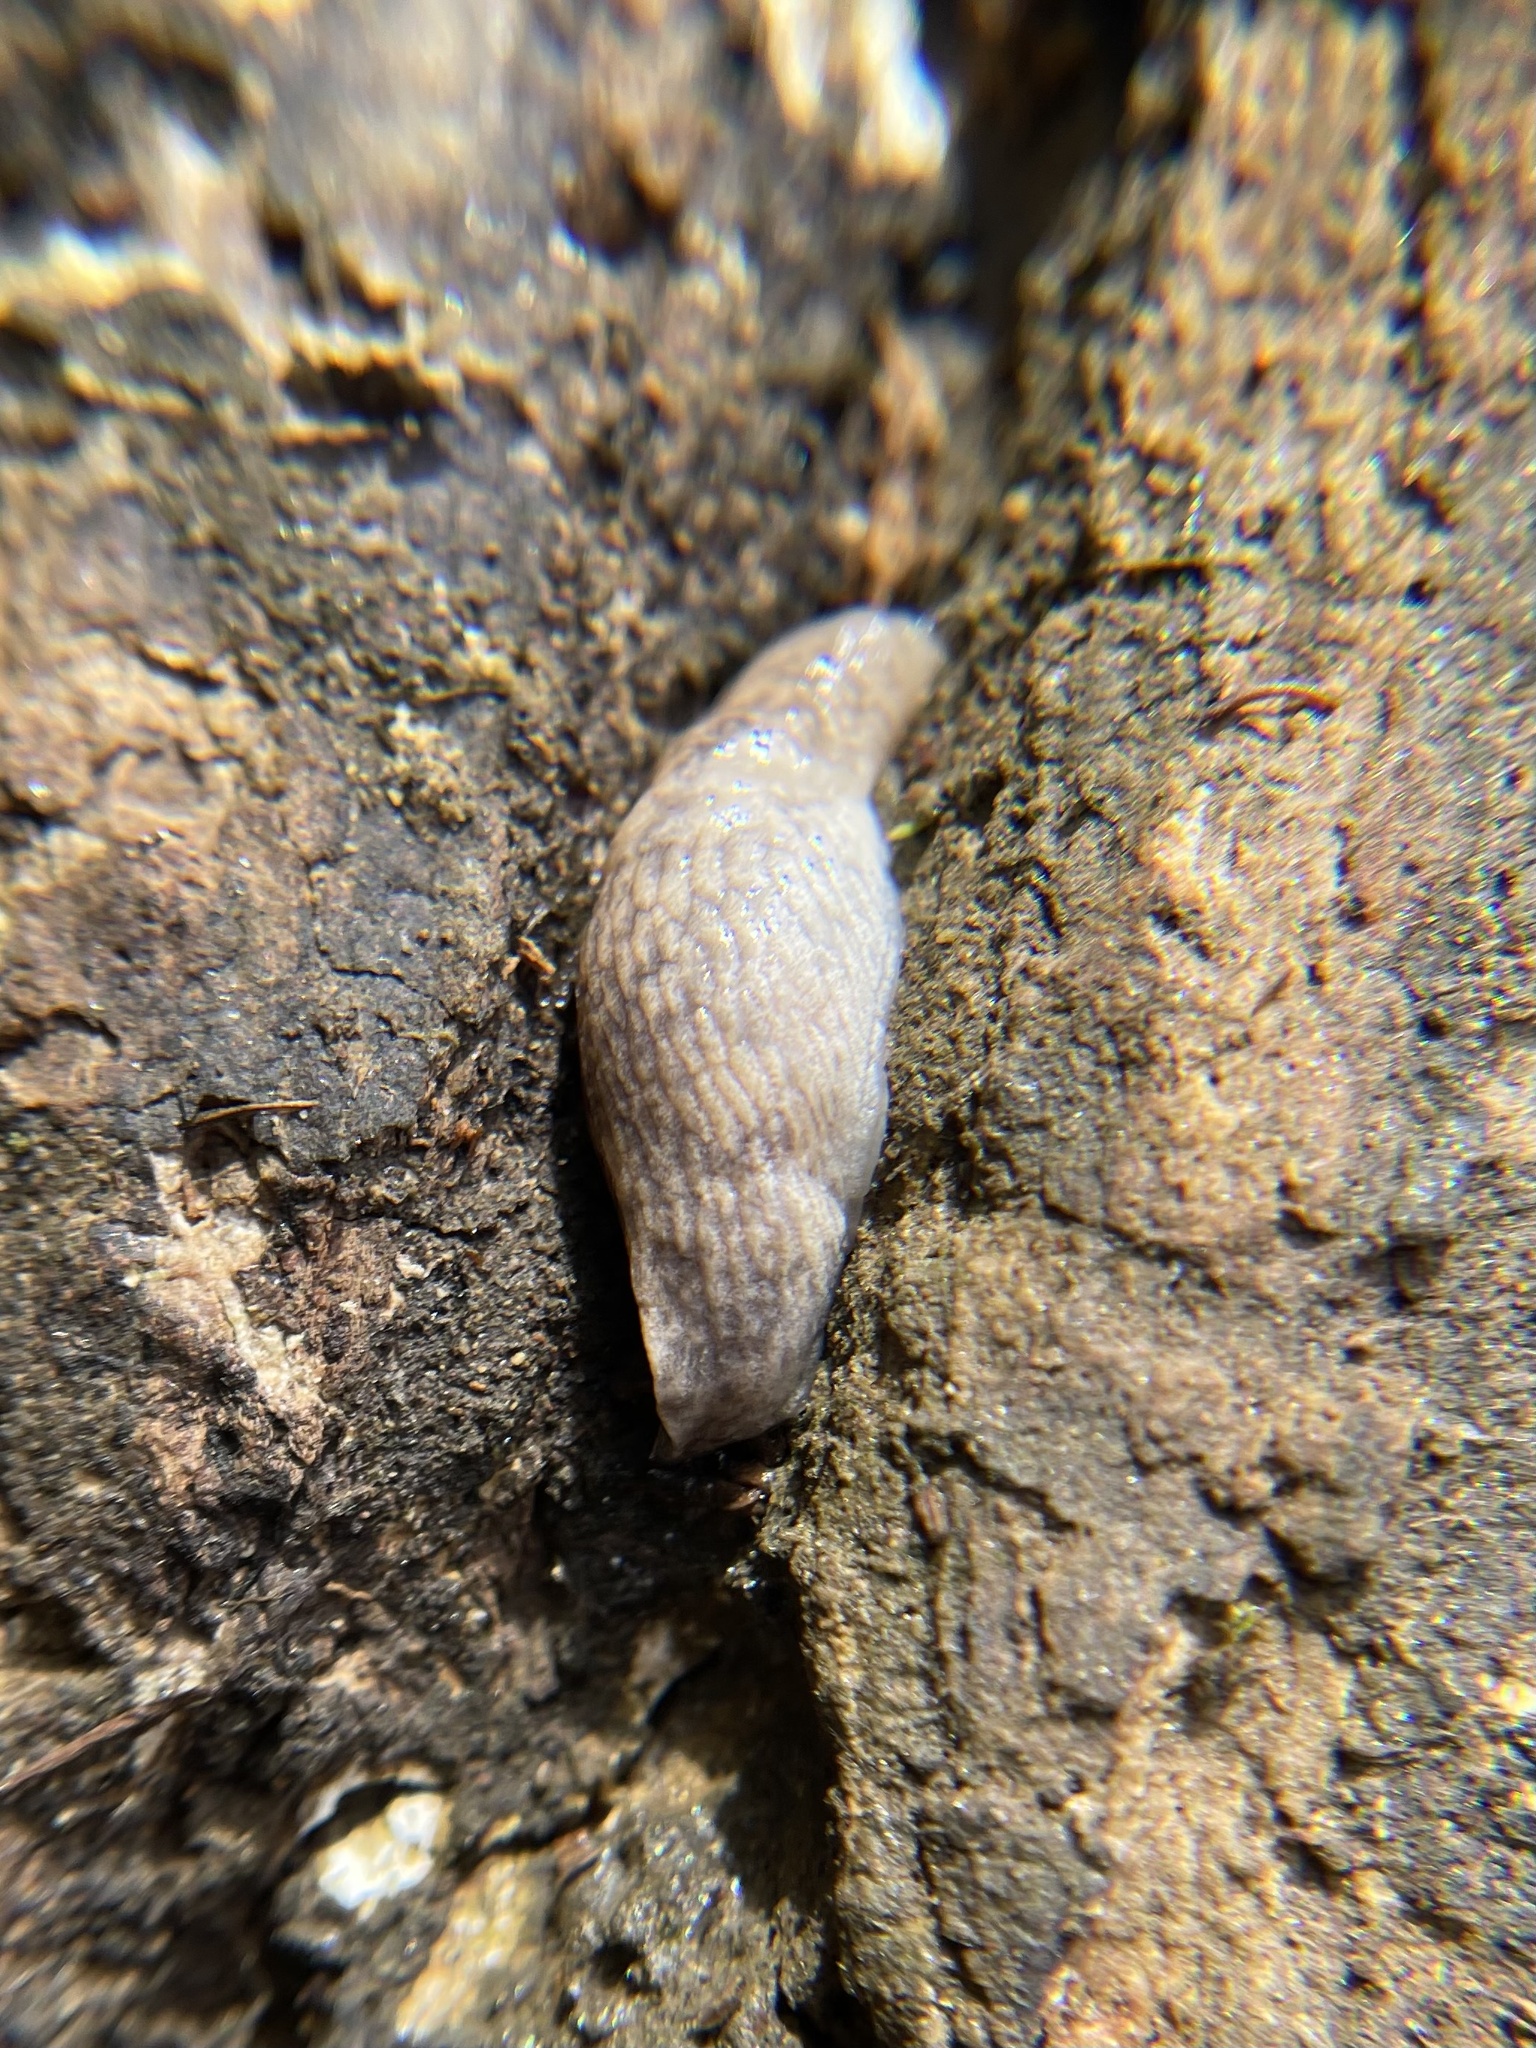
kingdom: Animalia
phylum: Mollusca
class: Gastropoda
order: Stylommatophora
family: Agriolimacidae
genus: Deroceras
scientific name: Deroceras reticulatum
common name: Gray field slug
